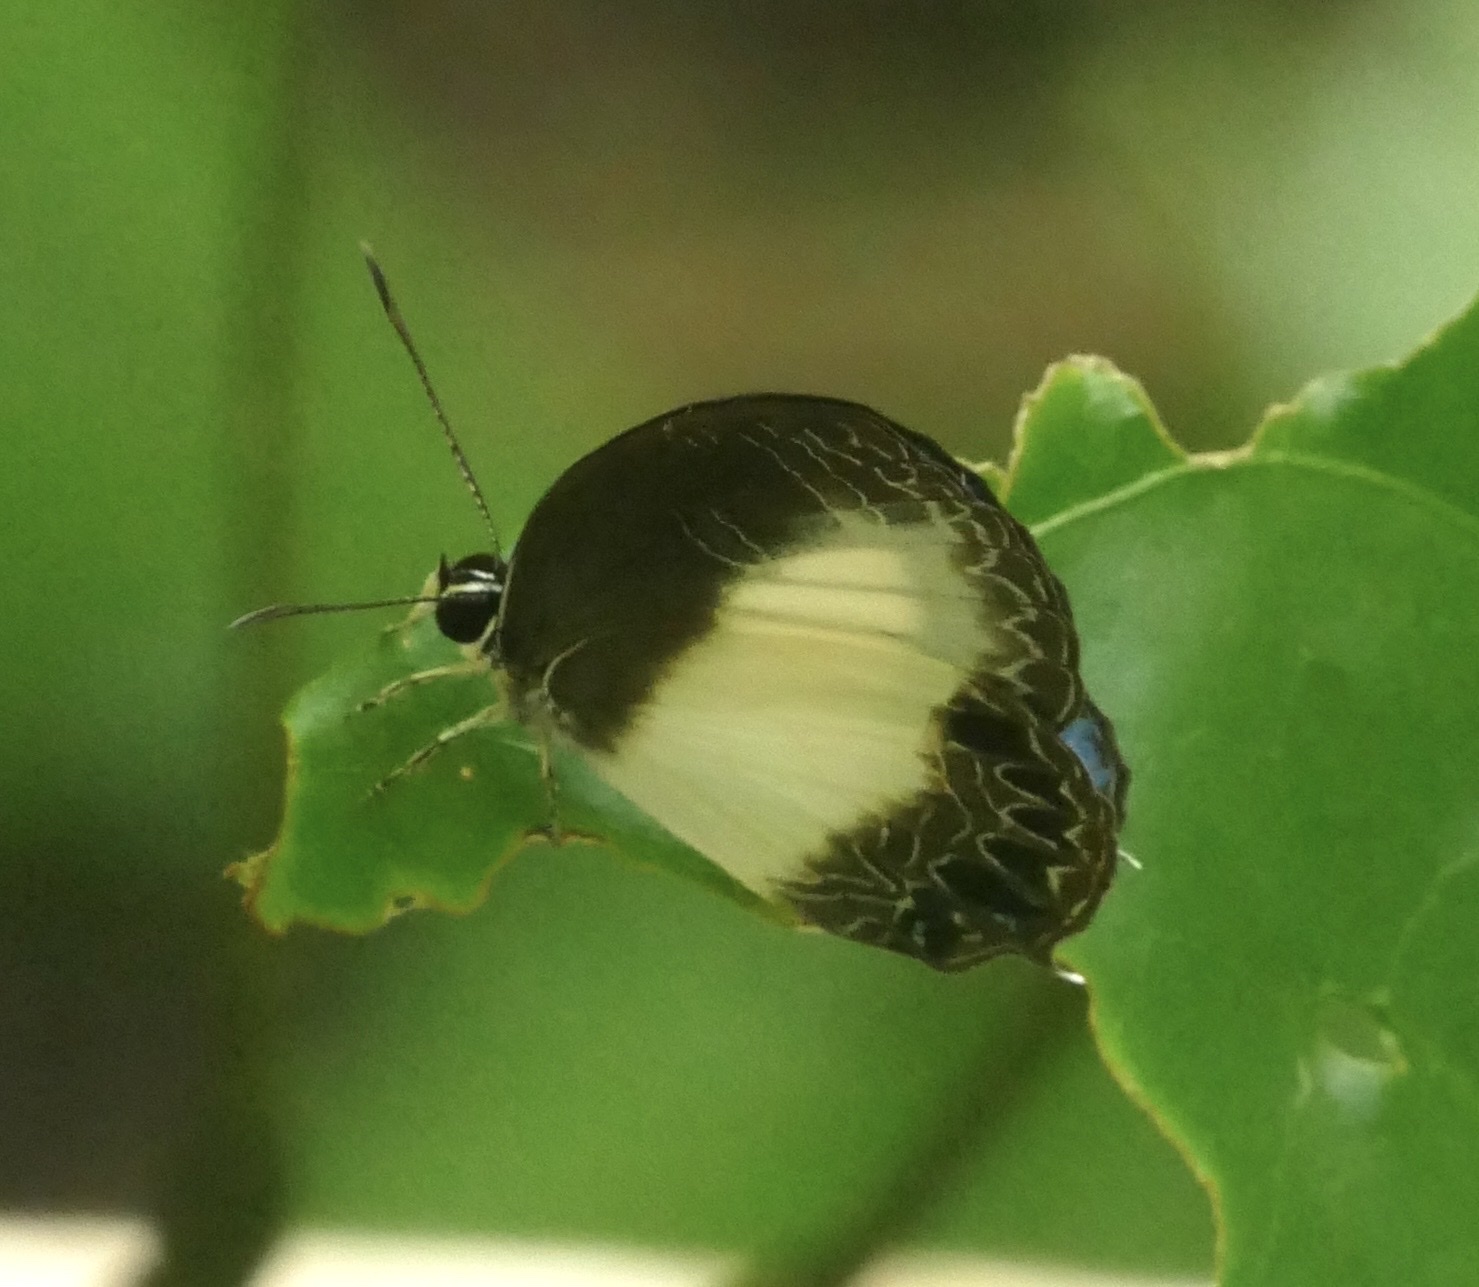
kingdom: Animalia
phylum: Arthropoda
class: Insecta
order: Lepidoptera
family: Lycaenidae
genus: Jamides
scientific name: Jamides cyta
